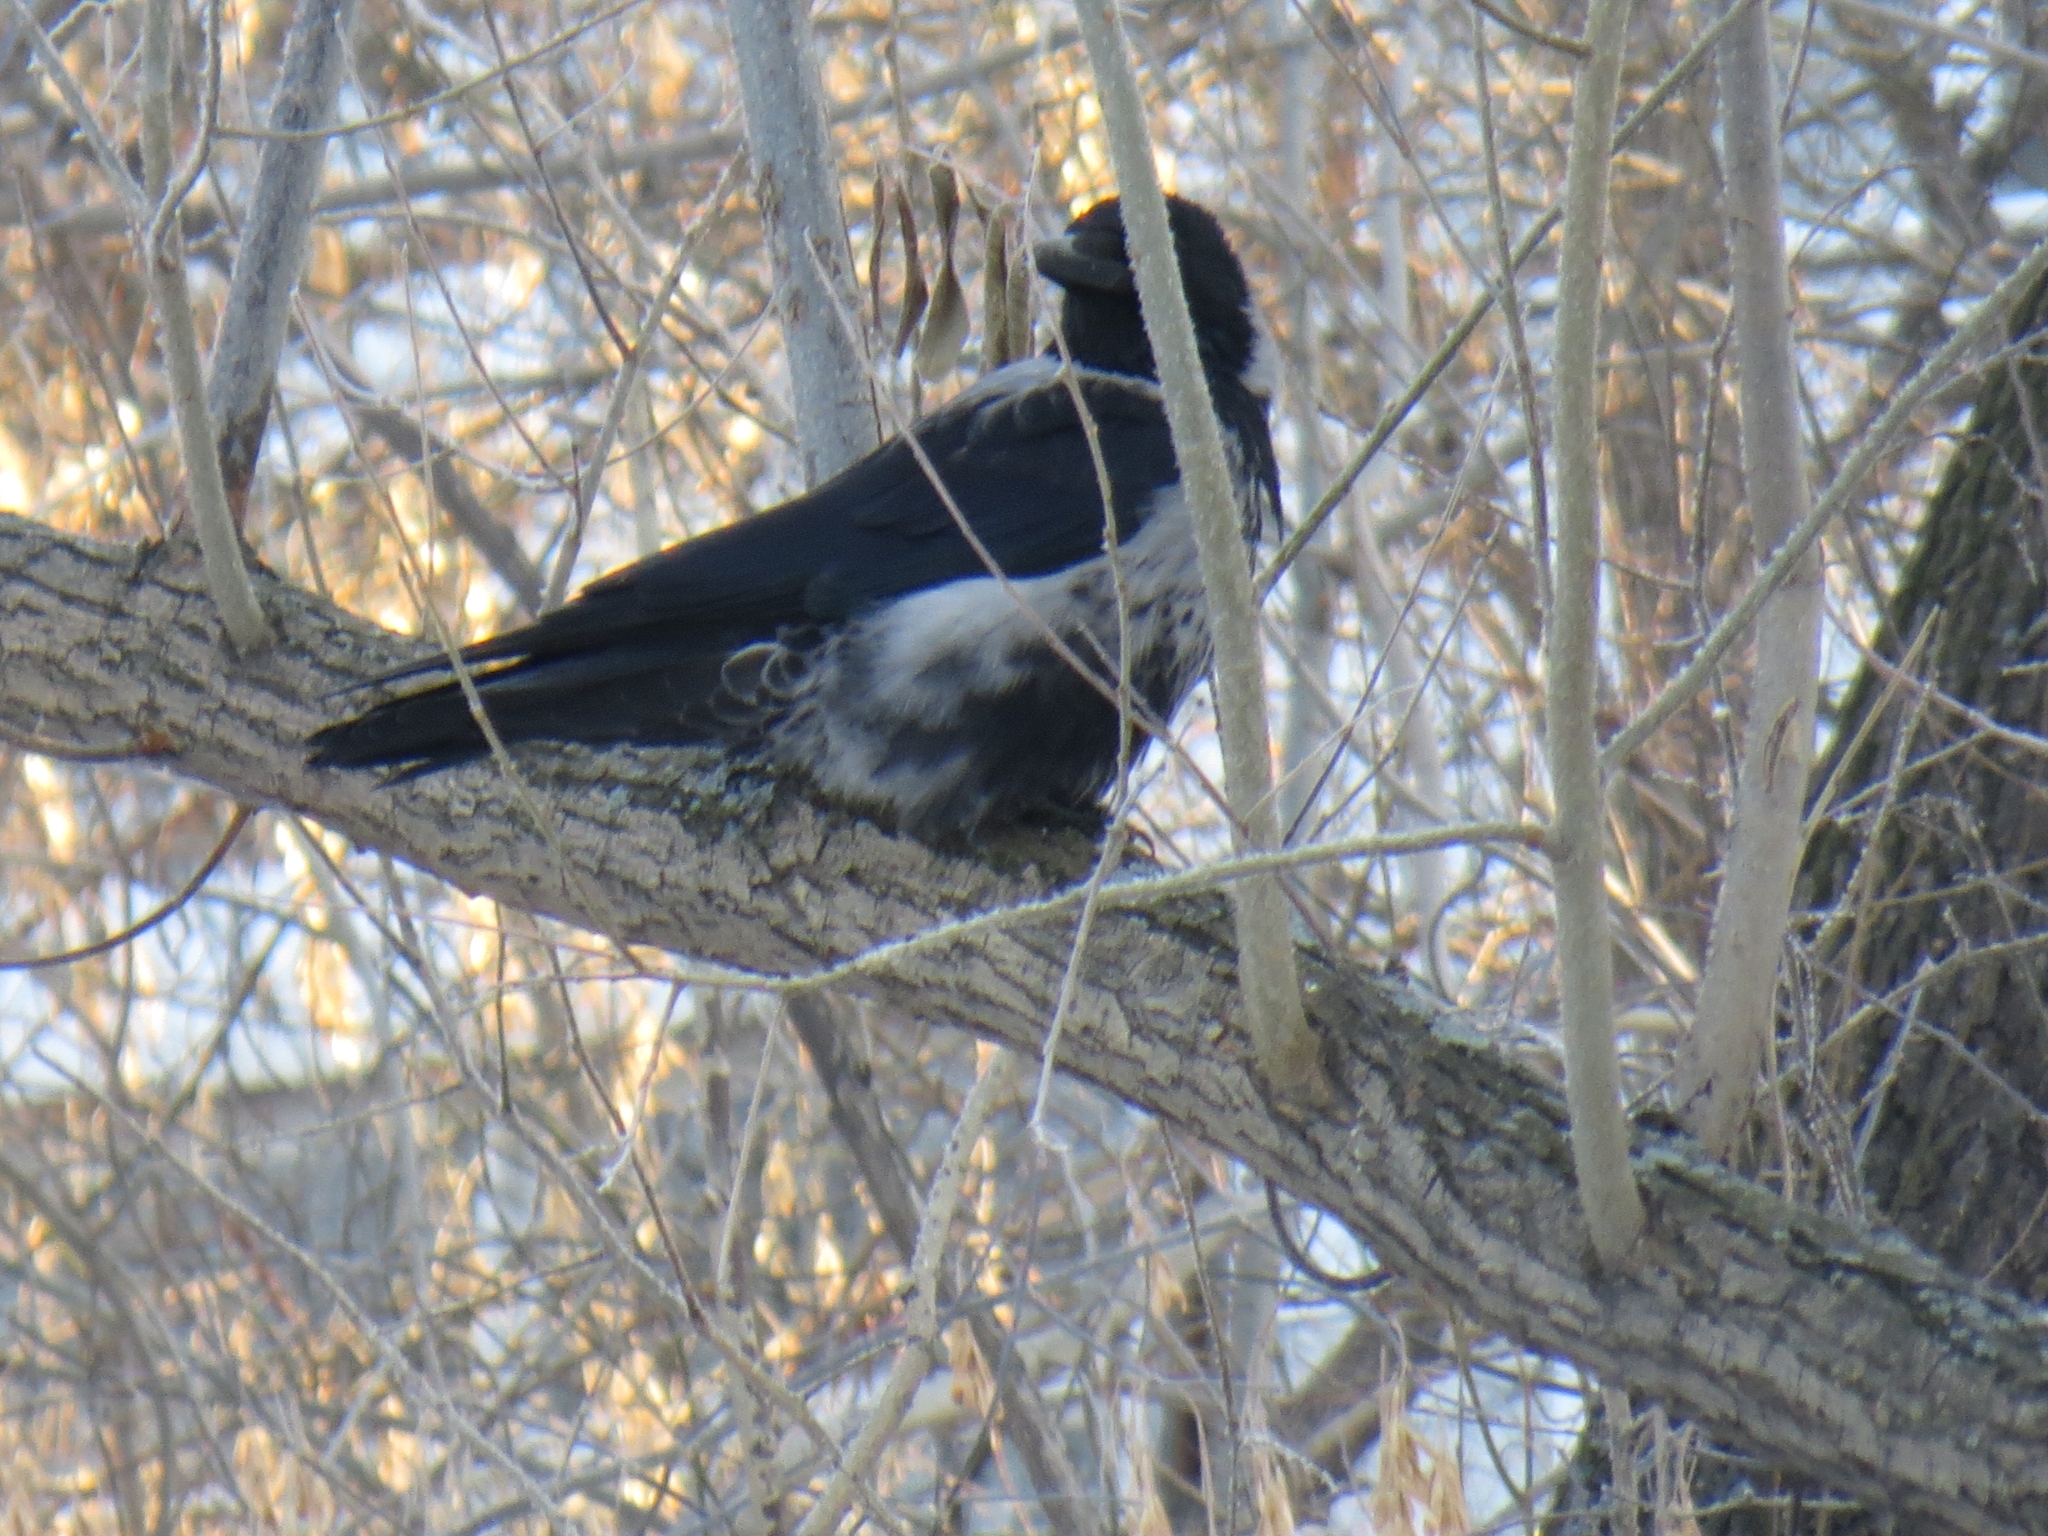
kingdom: Animalia
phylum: Chordata
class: Aves
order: Passeriformes
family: Corvidae
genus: Corvus
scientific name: Corvus
